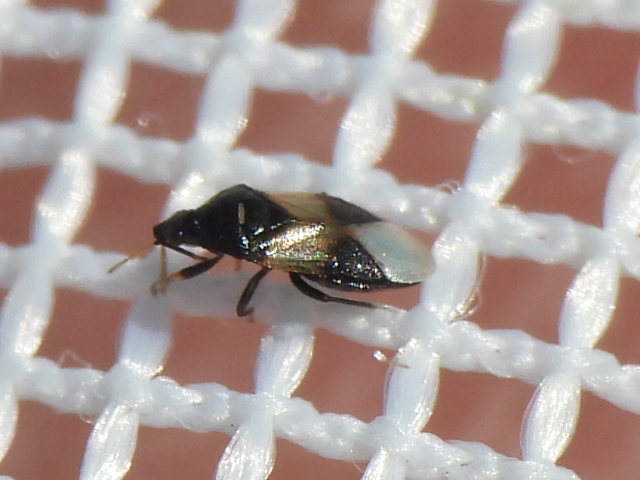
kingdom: Animalia
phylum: Arthropoda
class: Insecta
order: Hemiptera
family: Anthocoridae
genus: Orius
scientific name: Orius insidiosus
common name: Insidious flower bug
